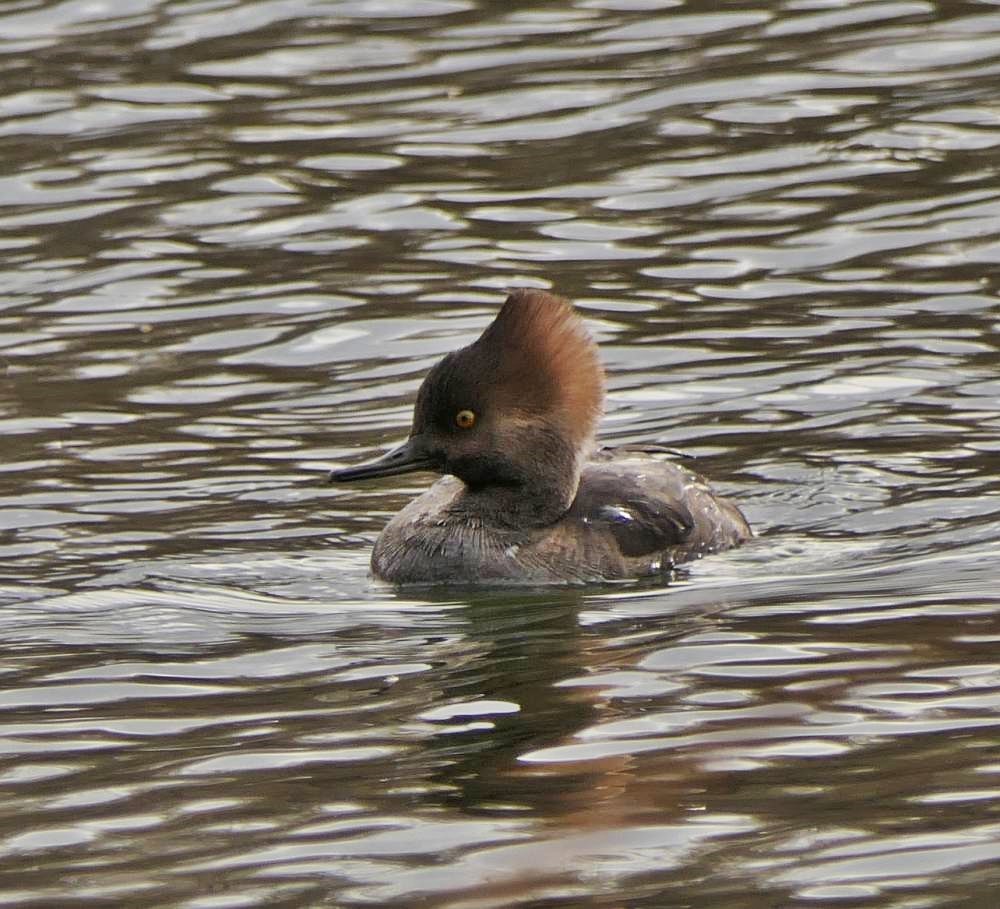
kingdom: Animalia
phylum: Chordata
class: Aves
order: Anseriformes
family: Anatidae
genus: Lophodytes
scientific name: Lophodytes cucullatus
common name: Hooded merganser
